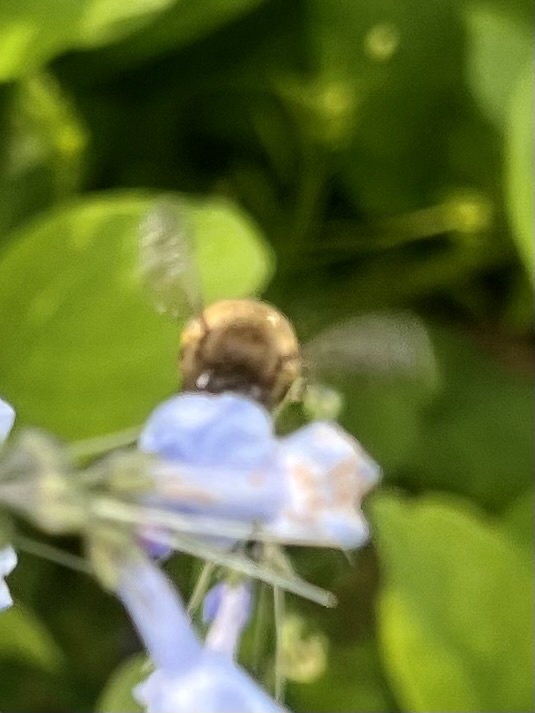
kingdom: Animalia
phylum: Arthropoda
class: Insecta
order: Hymenoptera
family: Apidae
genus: Anthophora
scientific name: Anthophora villosula
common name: Asian shaggy digger
